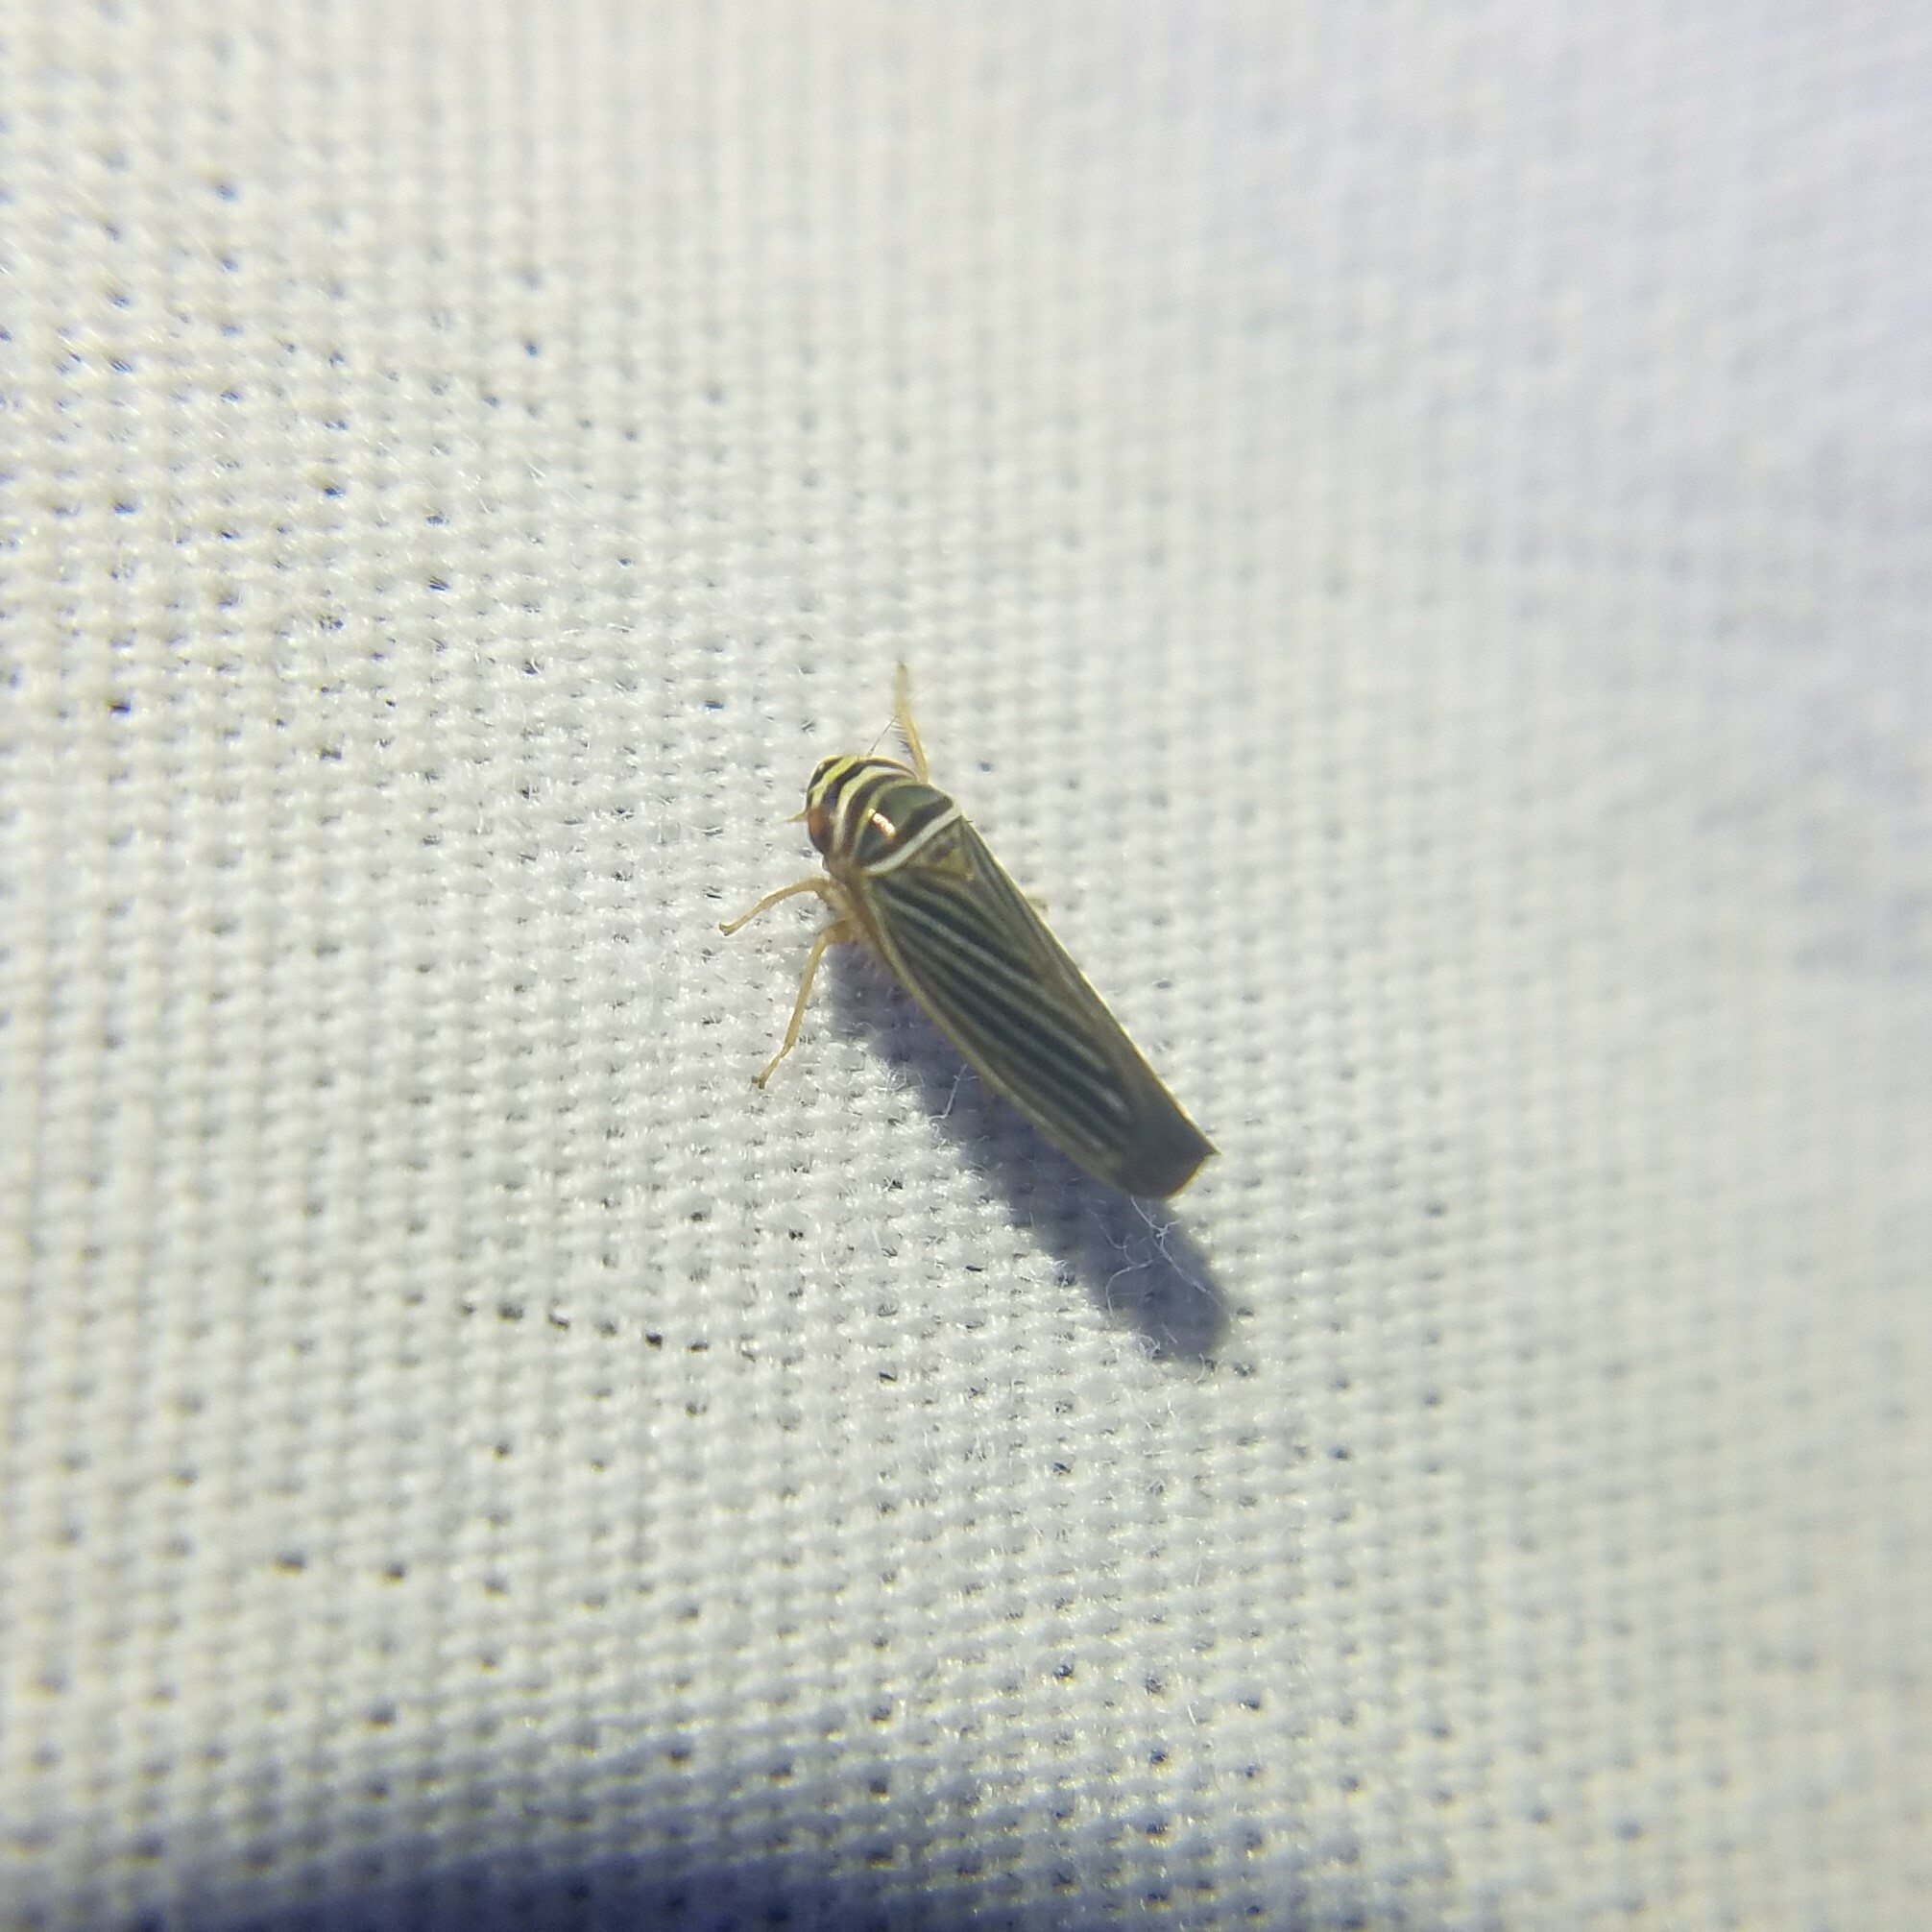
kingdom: Animalia
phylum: Arthropoda
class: Insecta
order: Hemiptera
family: Cicadellidae
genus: Tylozygus
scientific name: Tylozygus bifidus
